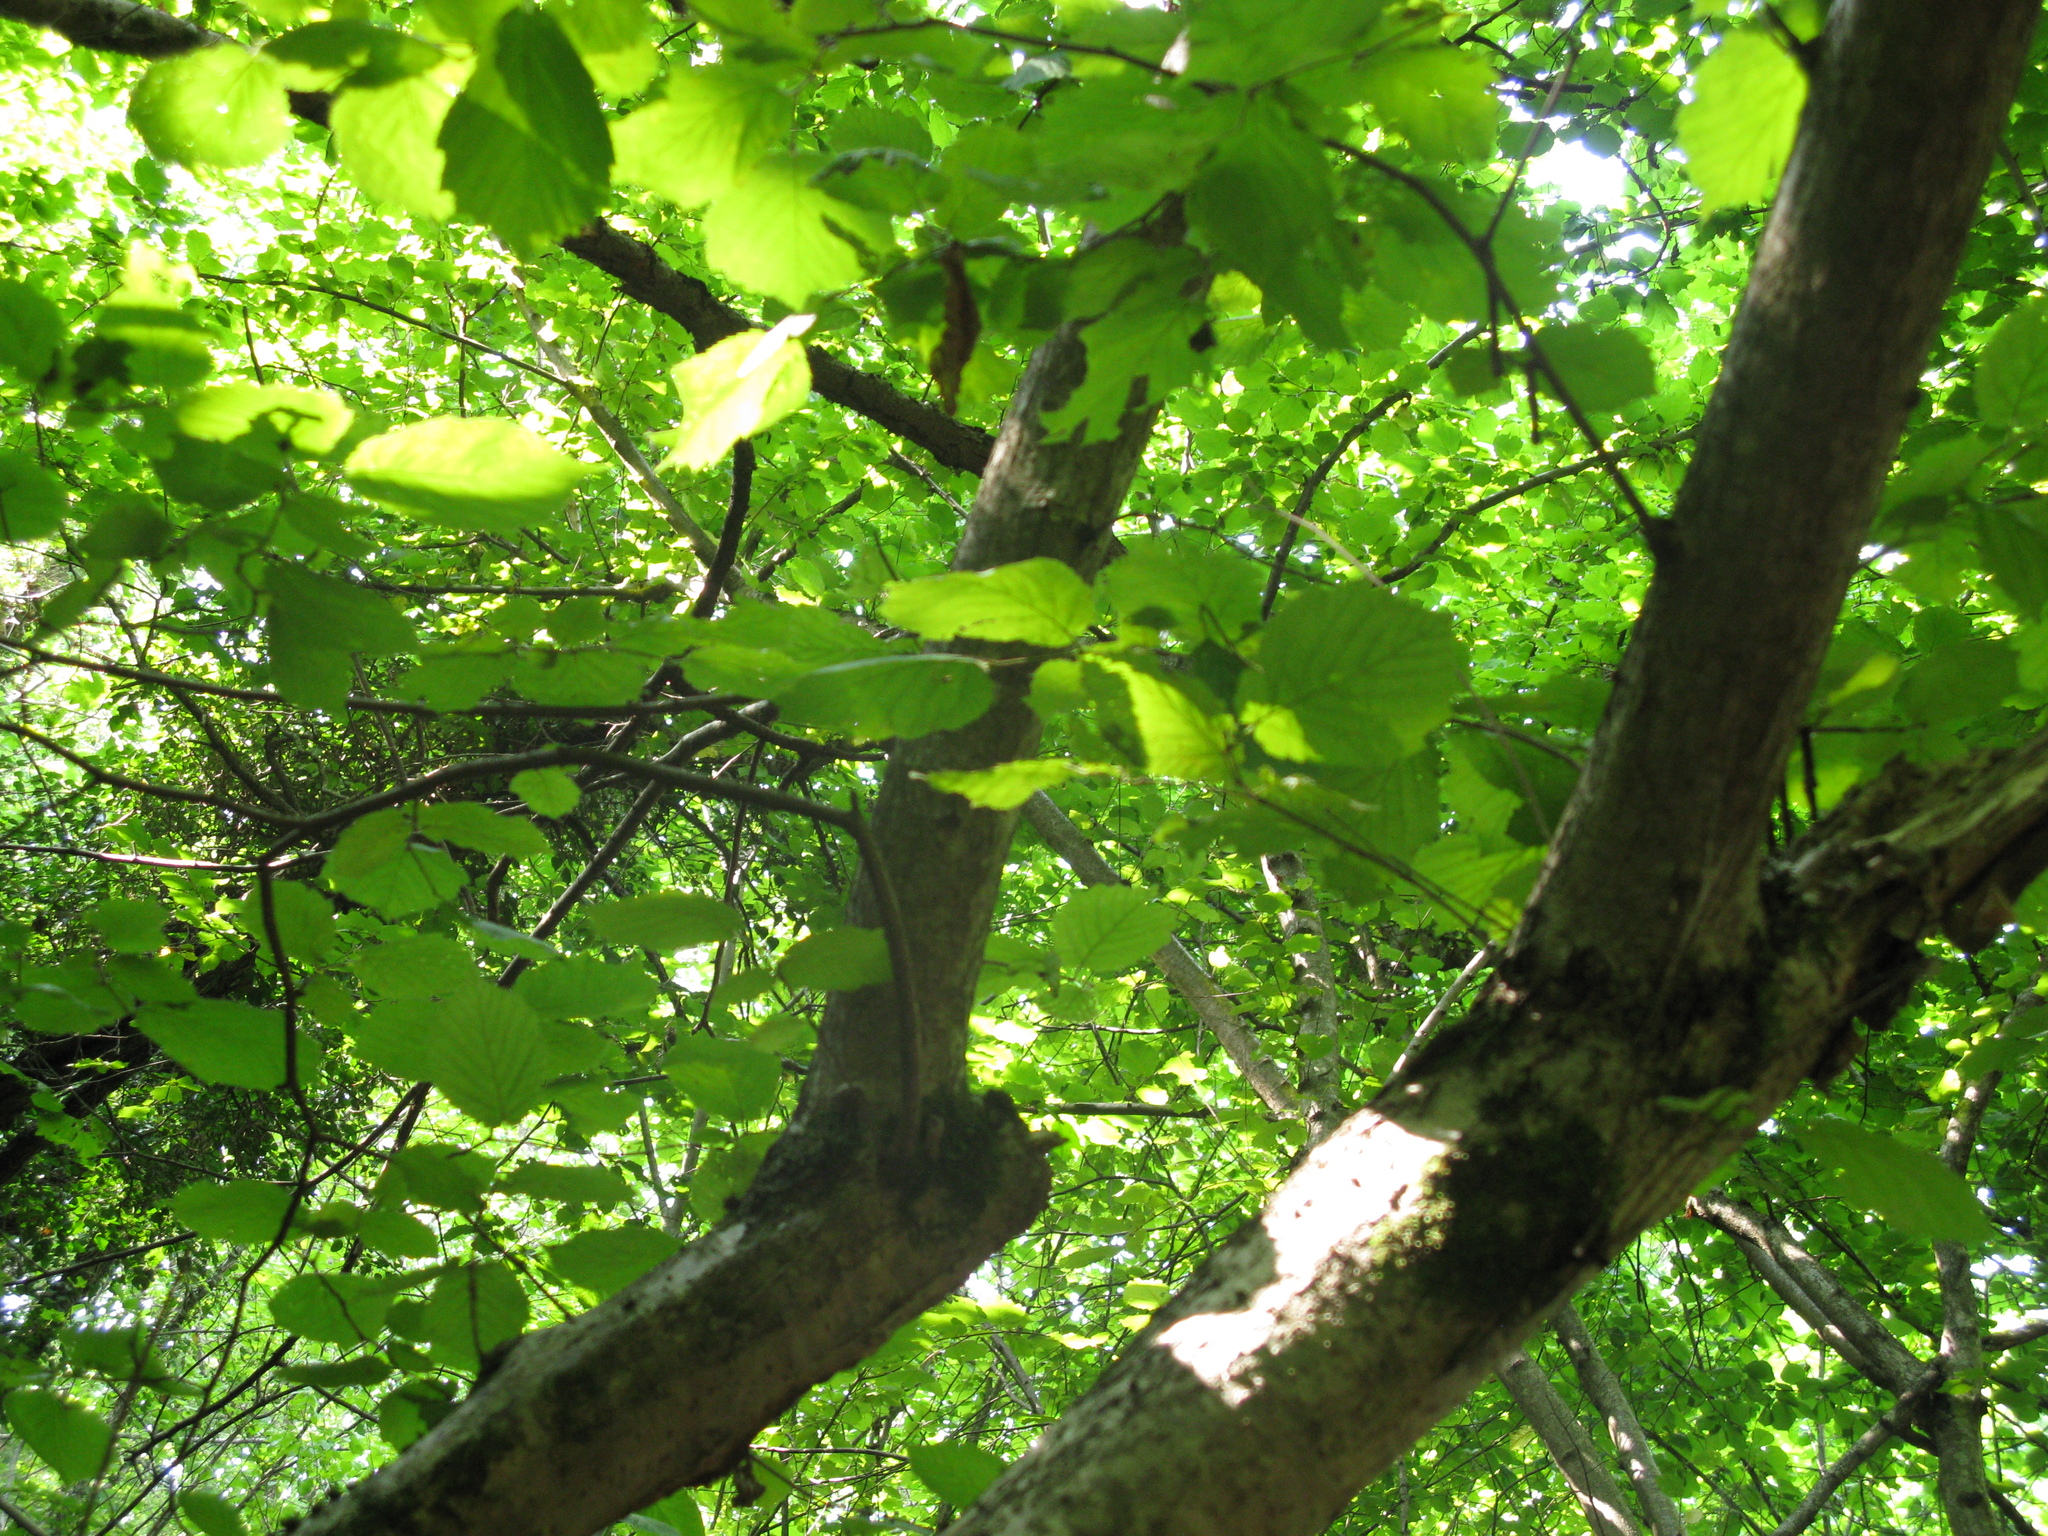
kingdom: Plantae
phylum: Tracheophyta
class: Magnoliopsida
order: Fagales
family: Betulaceae
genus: Corylus
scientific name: Corylus avellana
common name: European hazel
